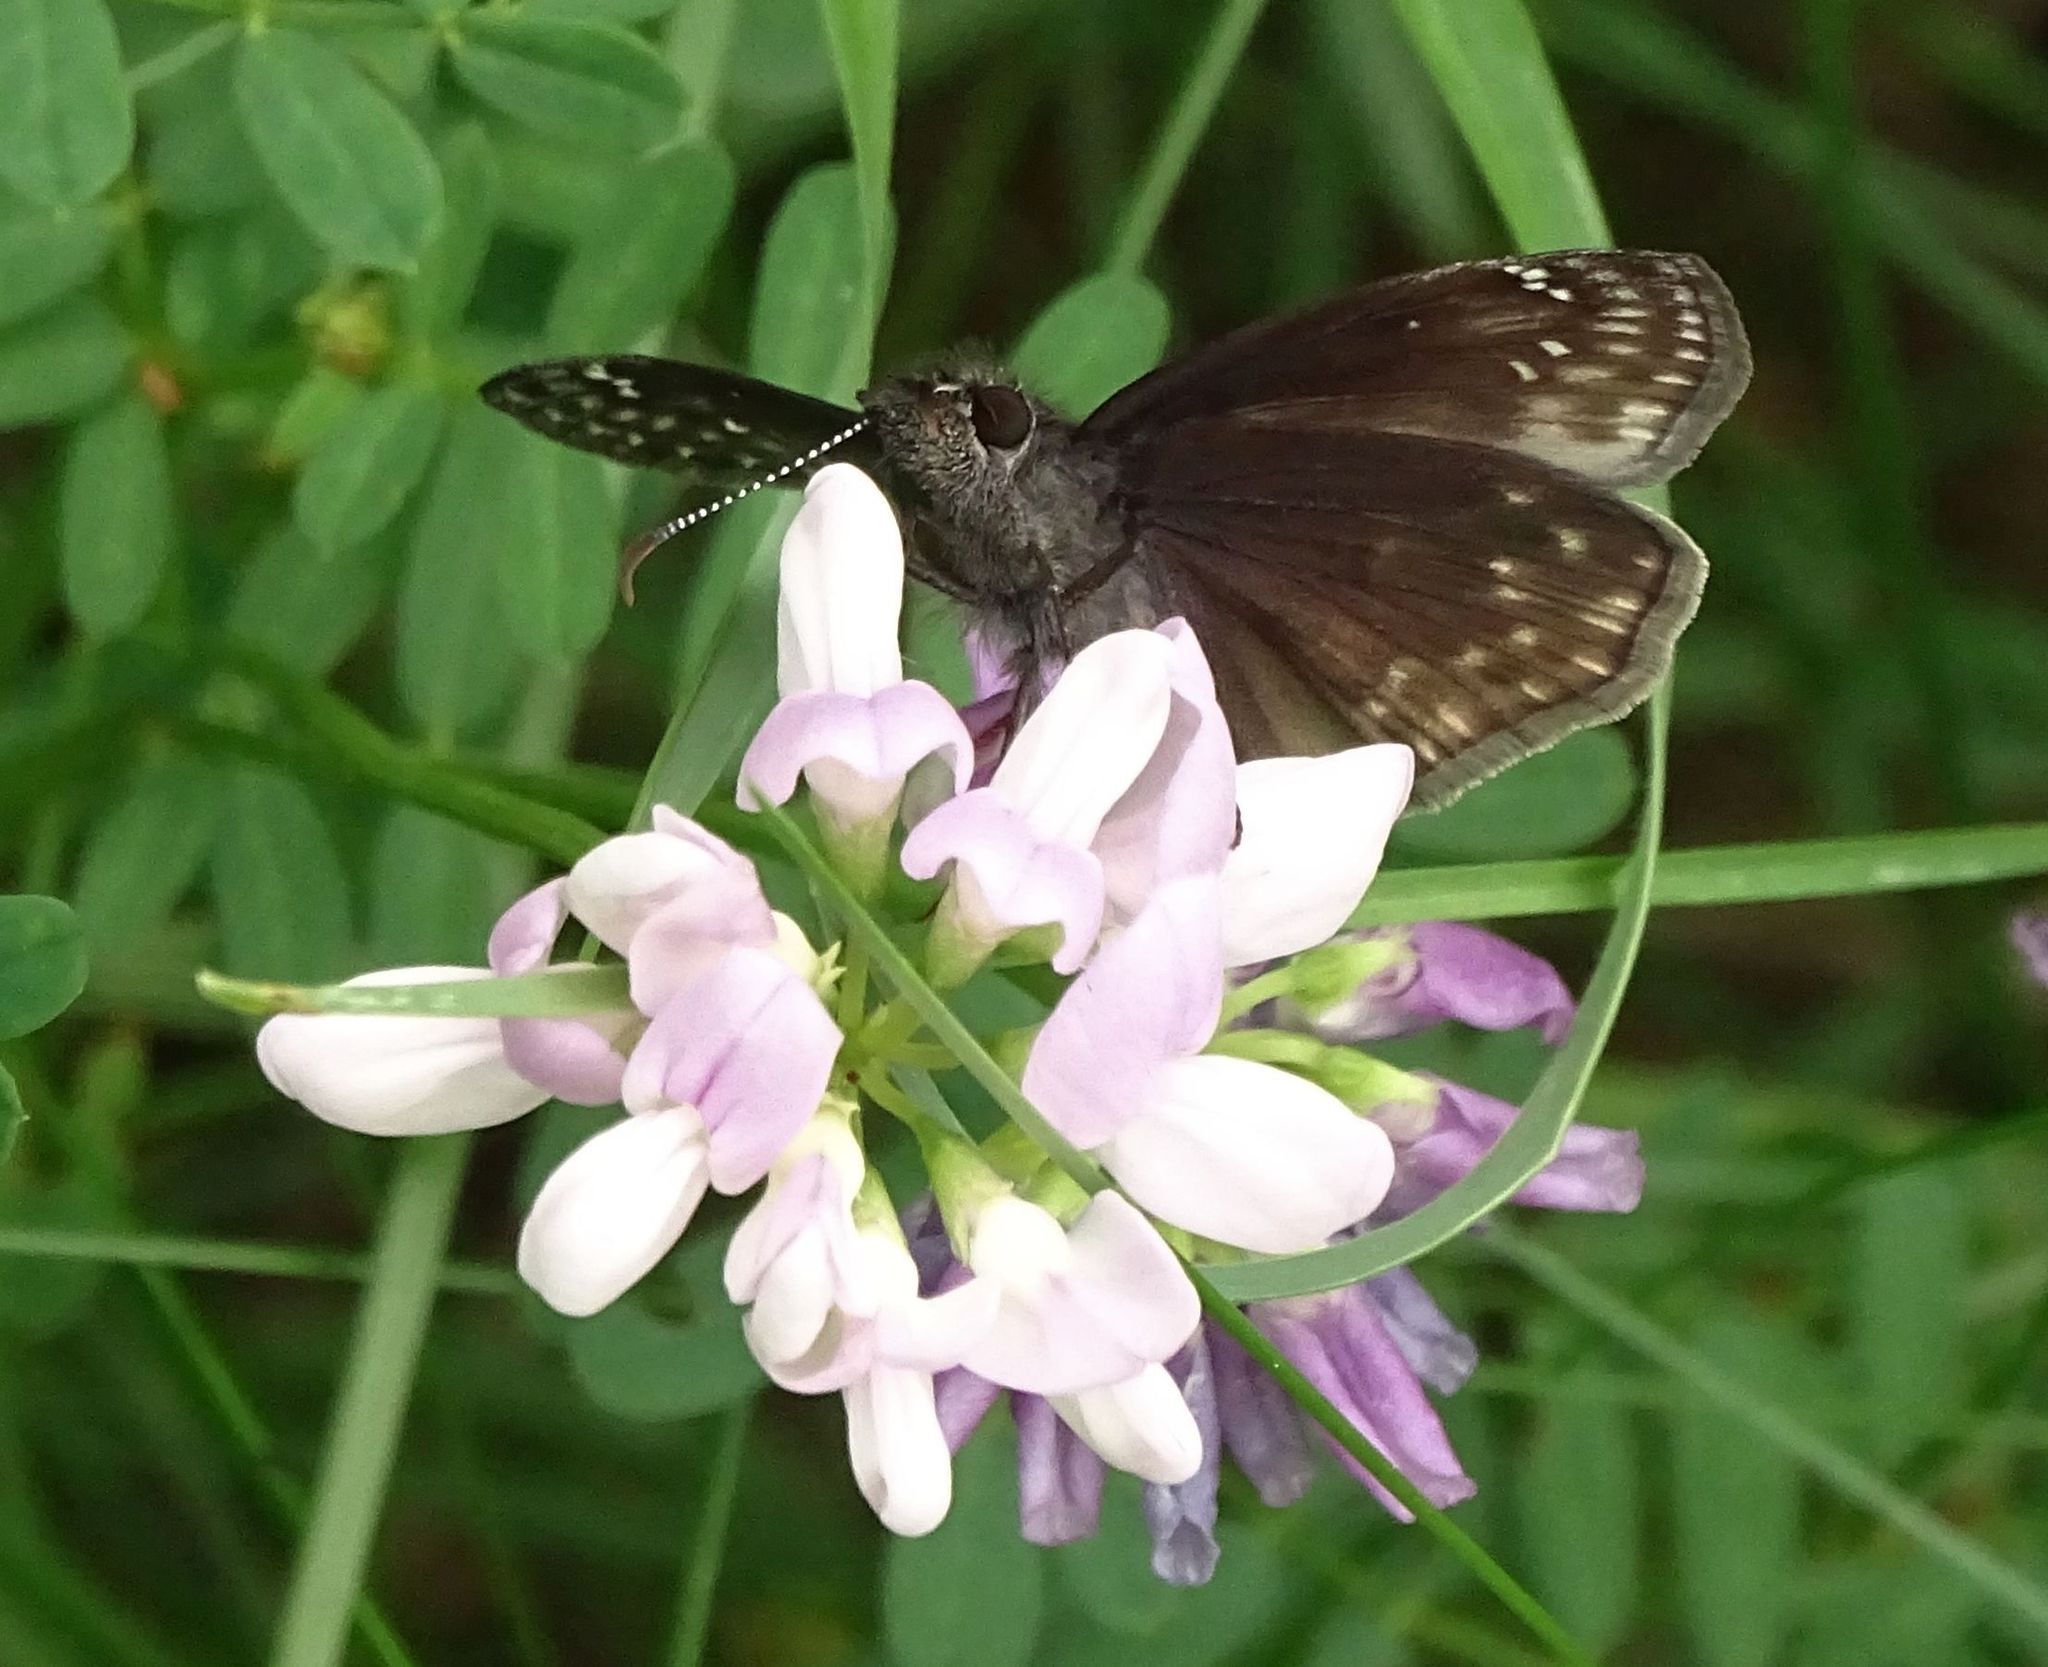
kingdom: Animalia
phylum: Arthropoda
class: Insecta
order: Lepidoptera
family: Hesperiidae
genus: Erynnis
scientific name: Erynnis baptisiae
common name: Wild indigo duskywing
